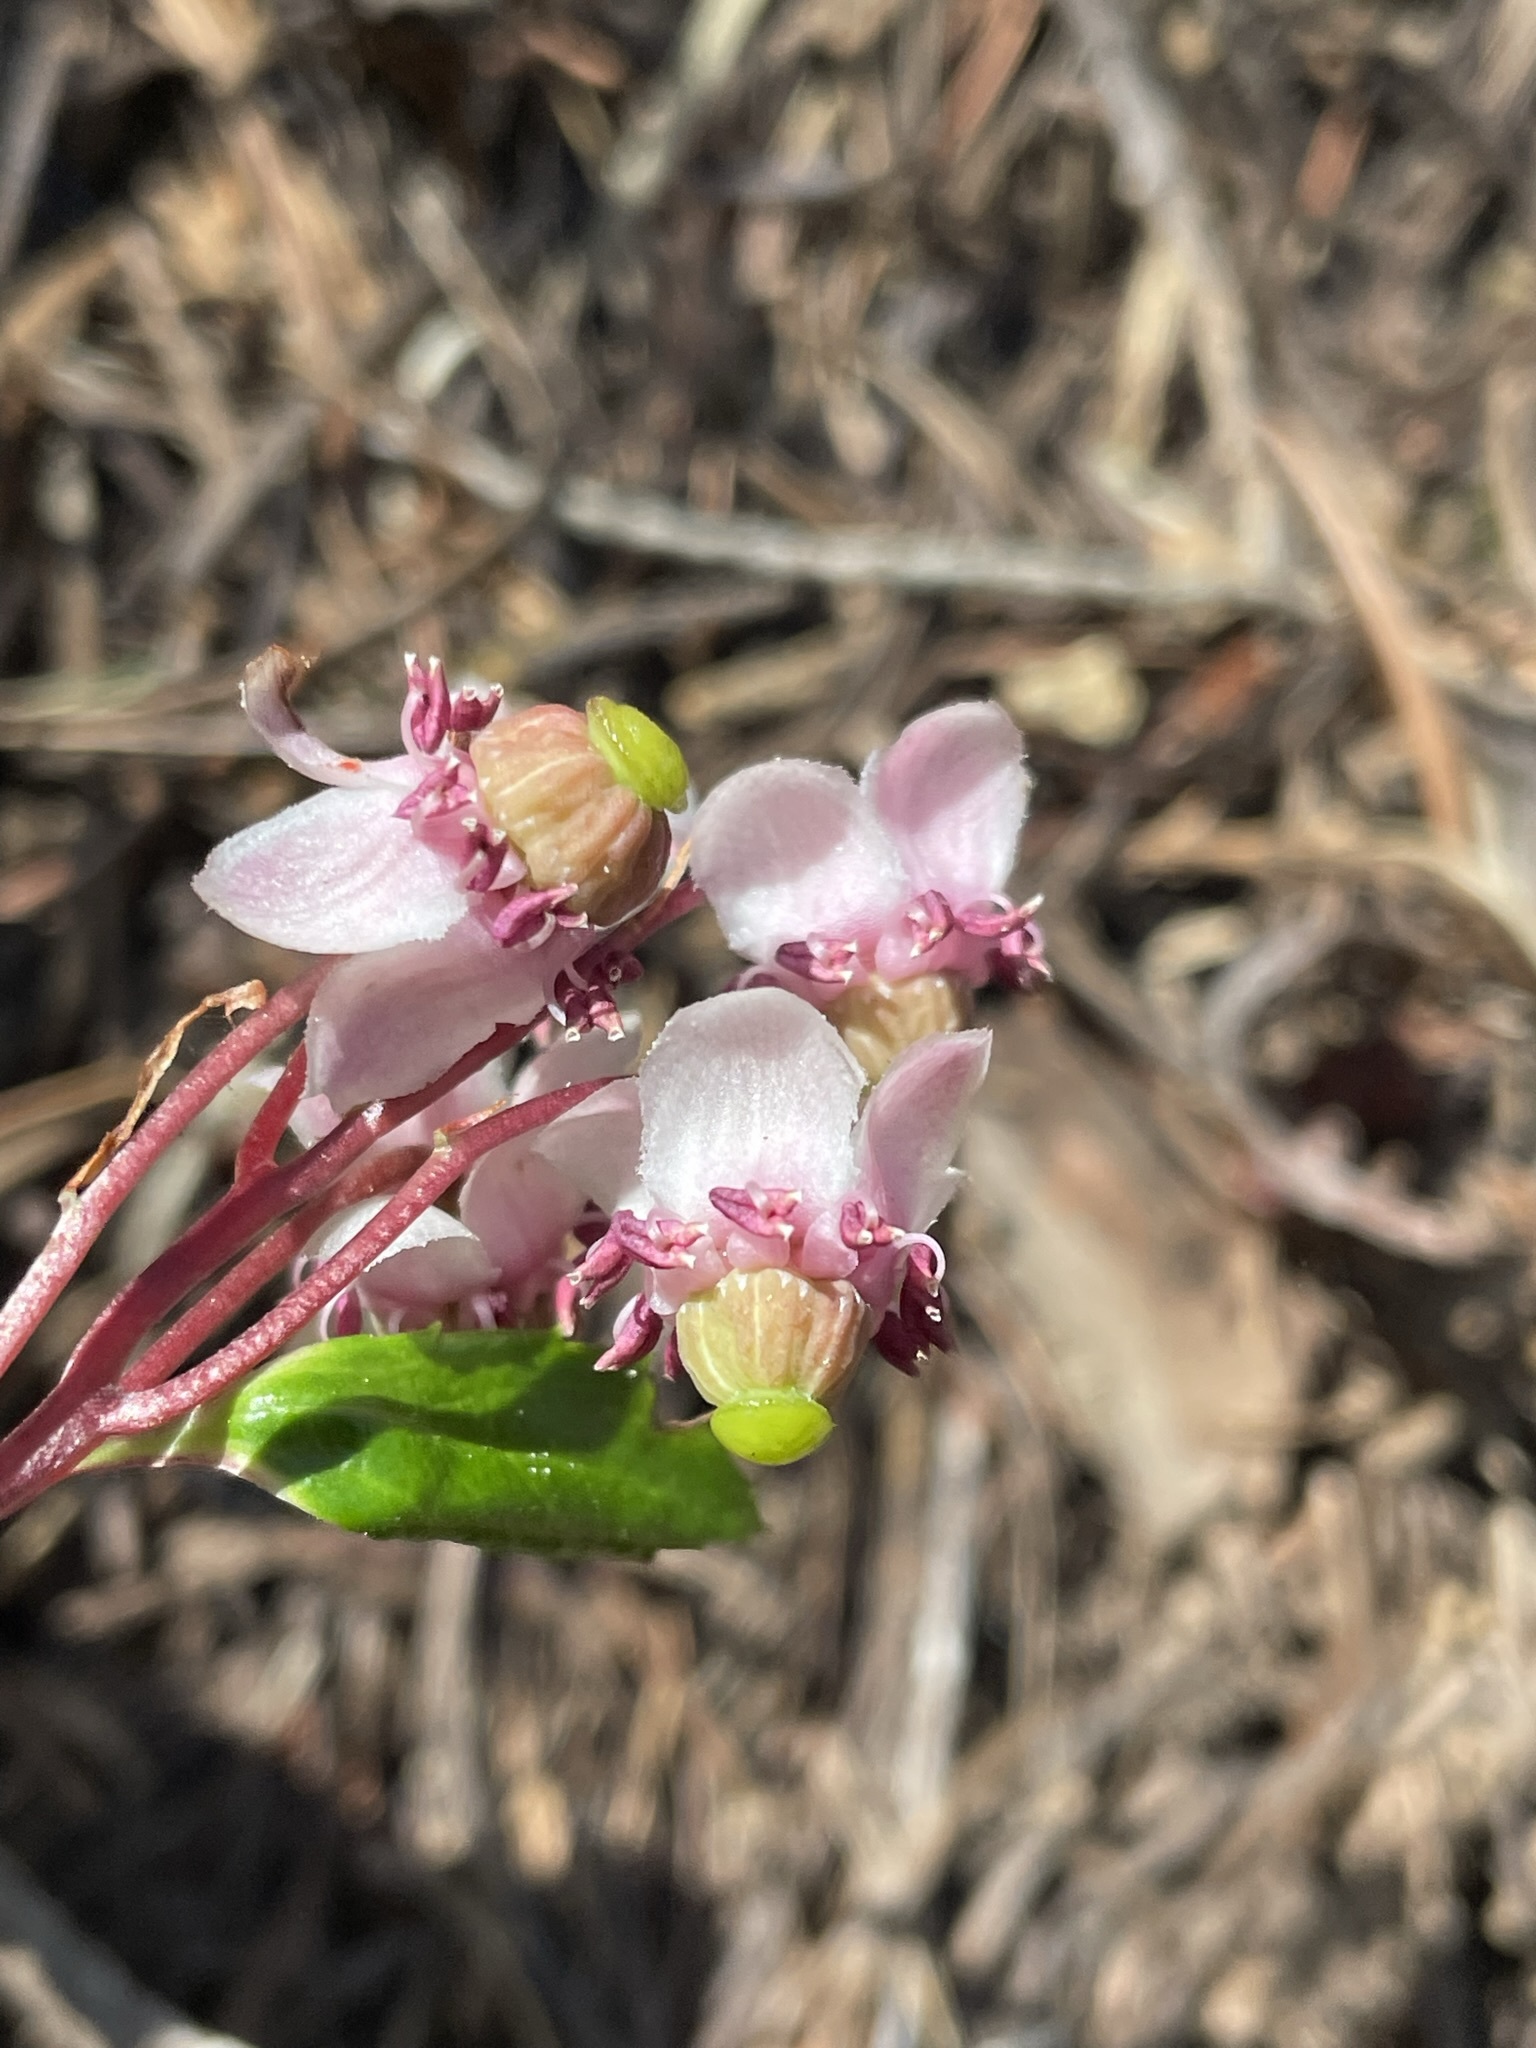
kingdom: Plantae
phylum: Tracheophyta
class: Magnoliopsida
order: Ericales
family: Ericaceae
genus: Chimaphila
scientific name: Chimaphila umbellata
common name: Pipsissewa
